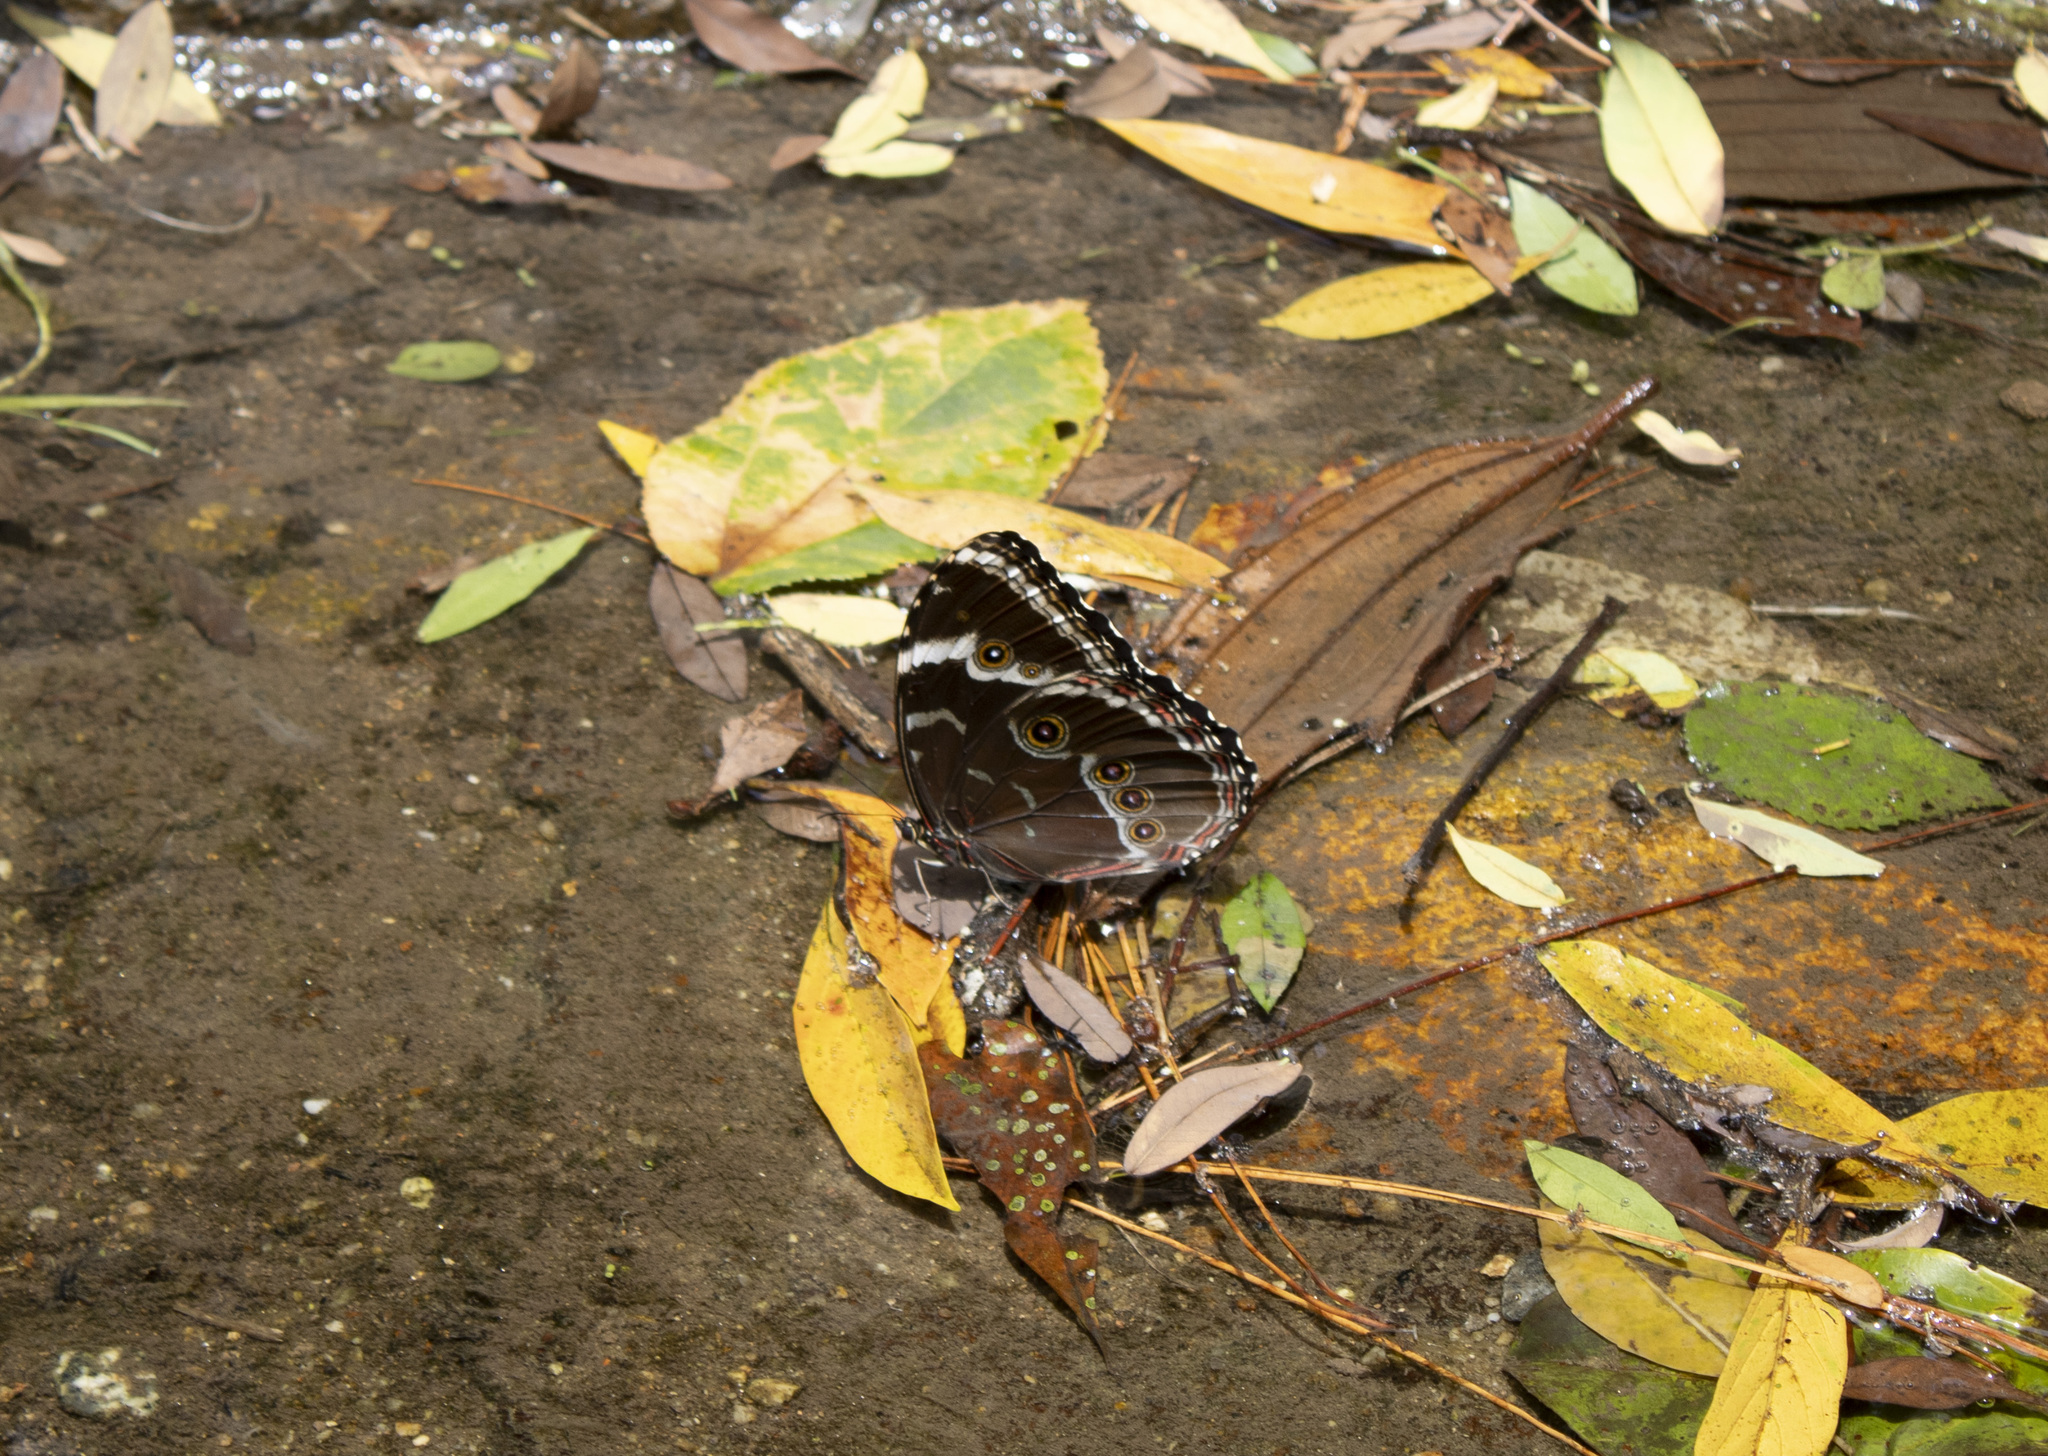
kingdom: Animalia
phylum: Arthropoda
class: Insecta
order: Lepidoptera
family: Nymphalidae
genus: Morpho
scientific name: Morpho helenor
